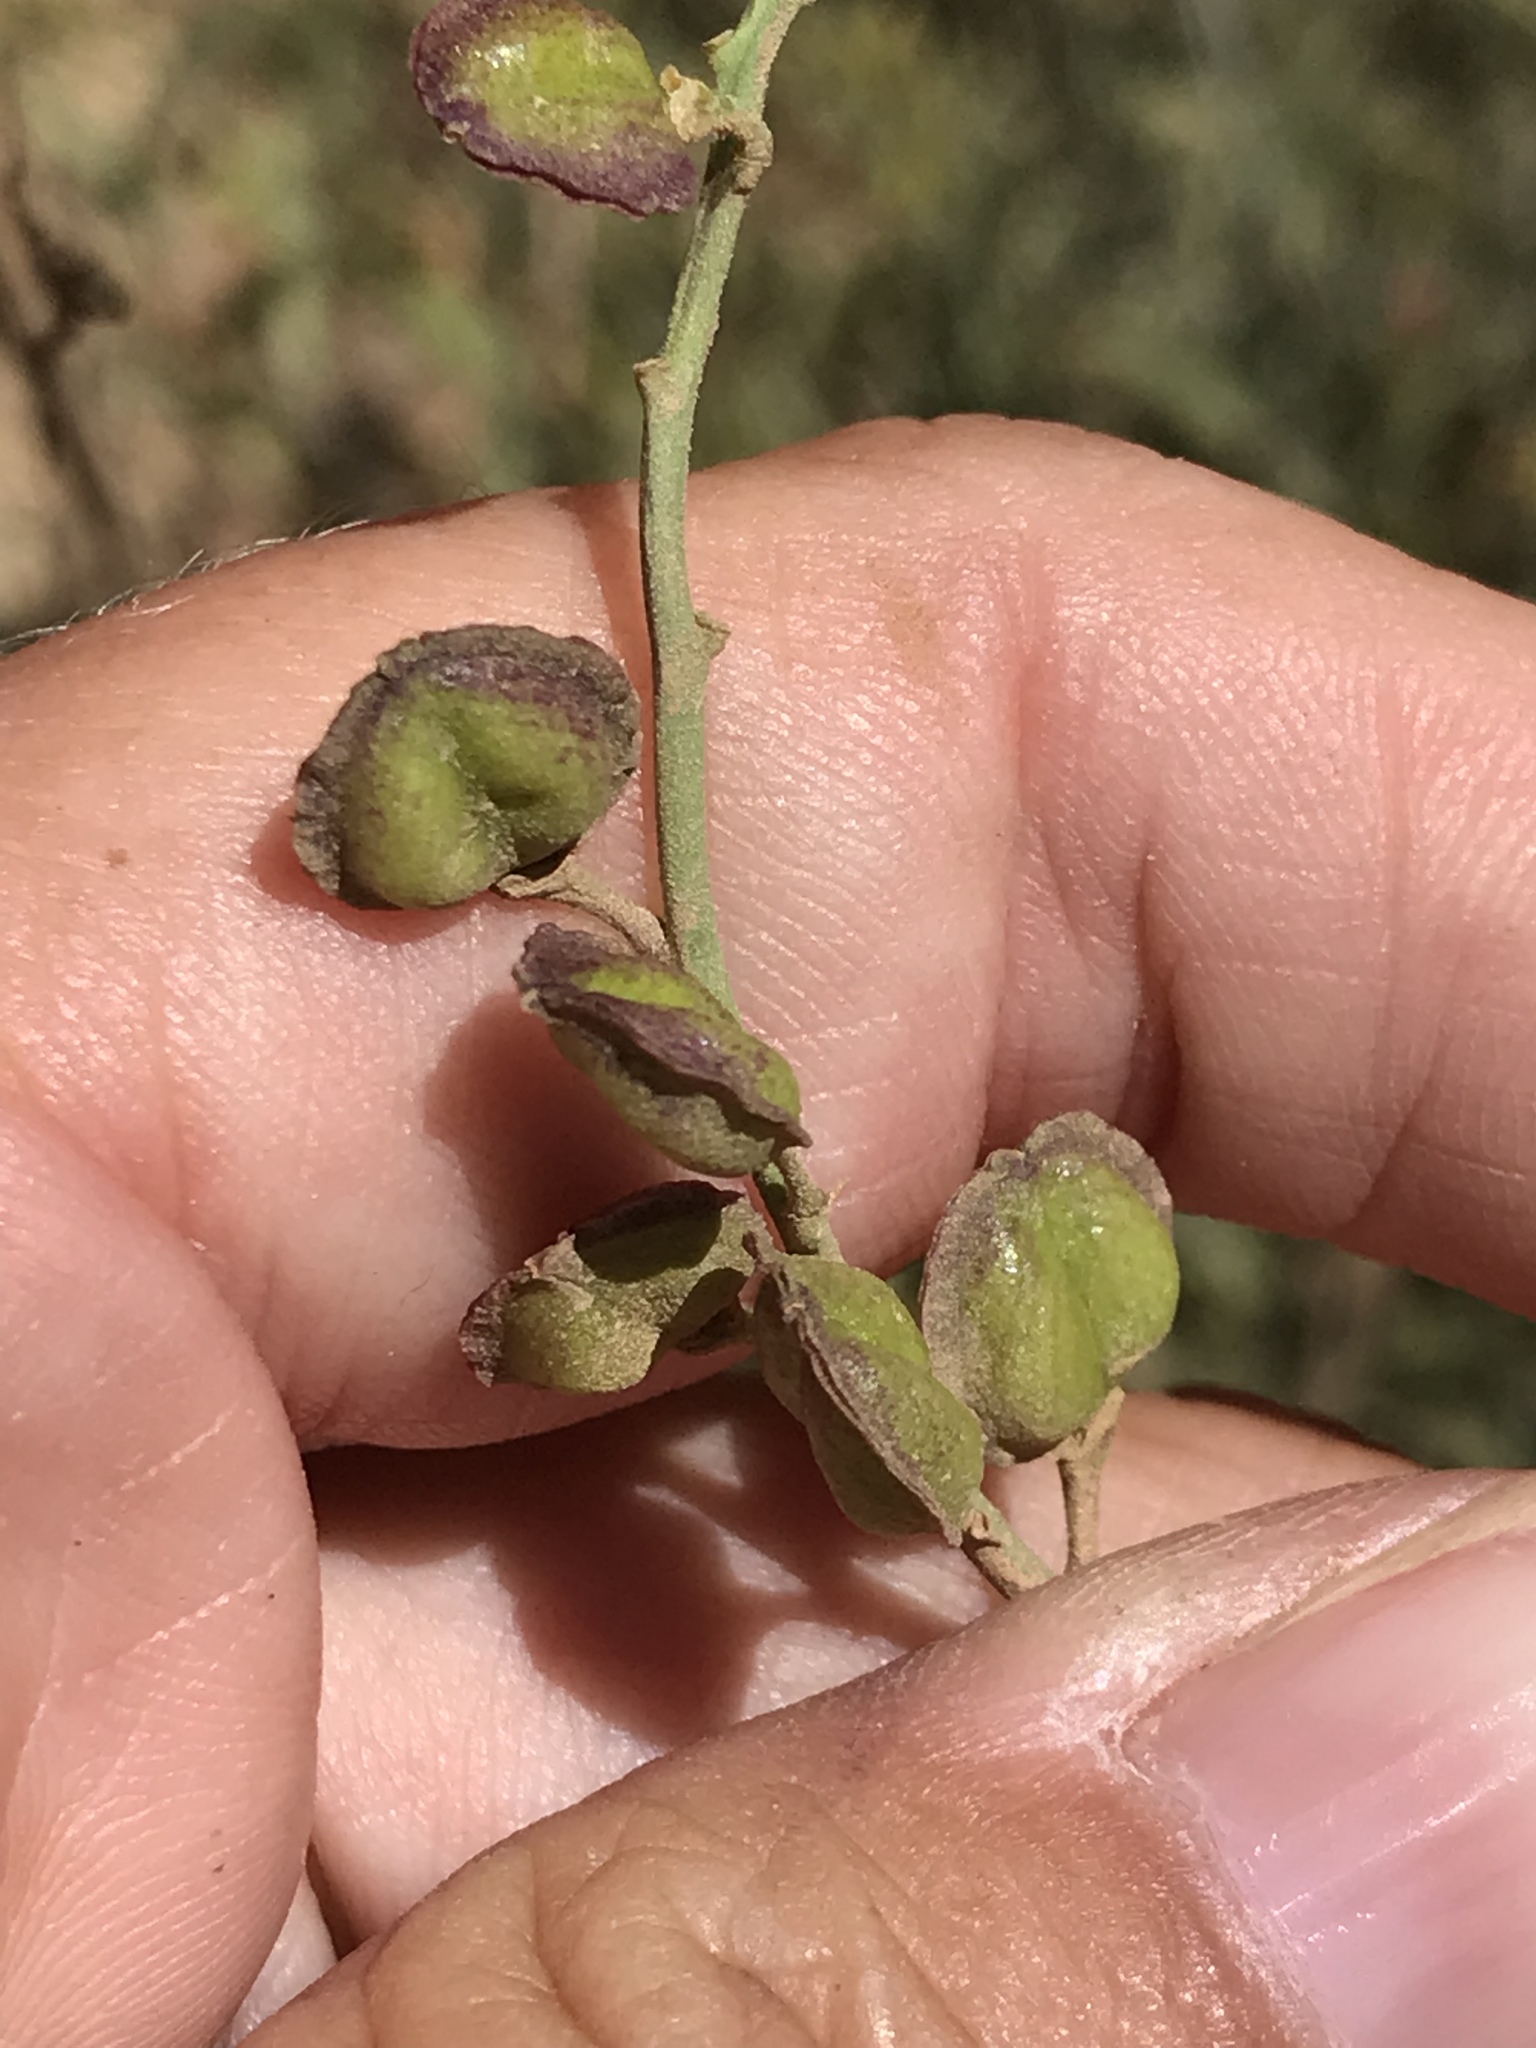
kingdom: Plantae
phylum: Tracheophyta
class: Magnoliopsida
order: Fabales
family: Polygalaceae
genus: Rhinotropis
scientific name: Rhinotropis cornuta
